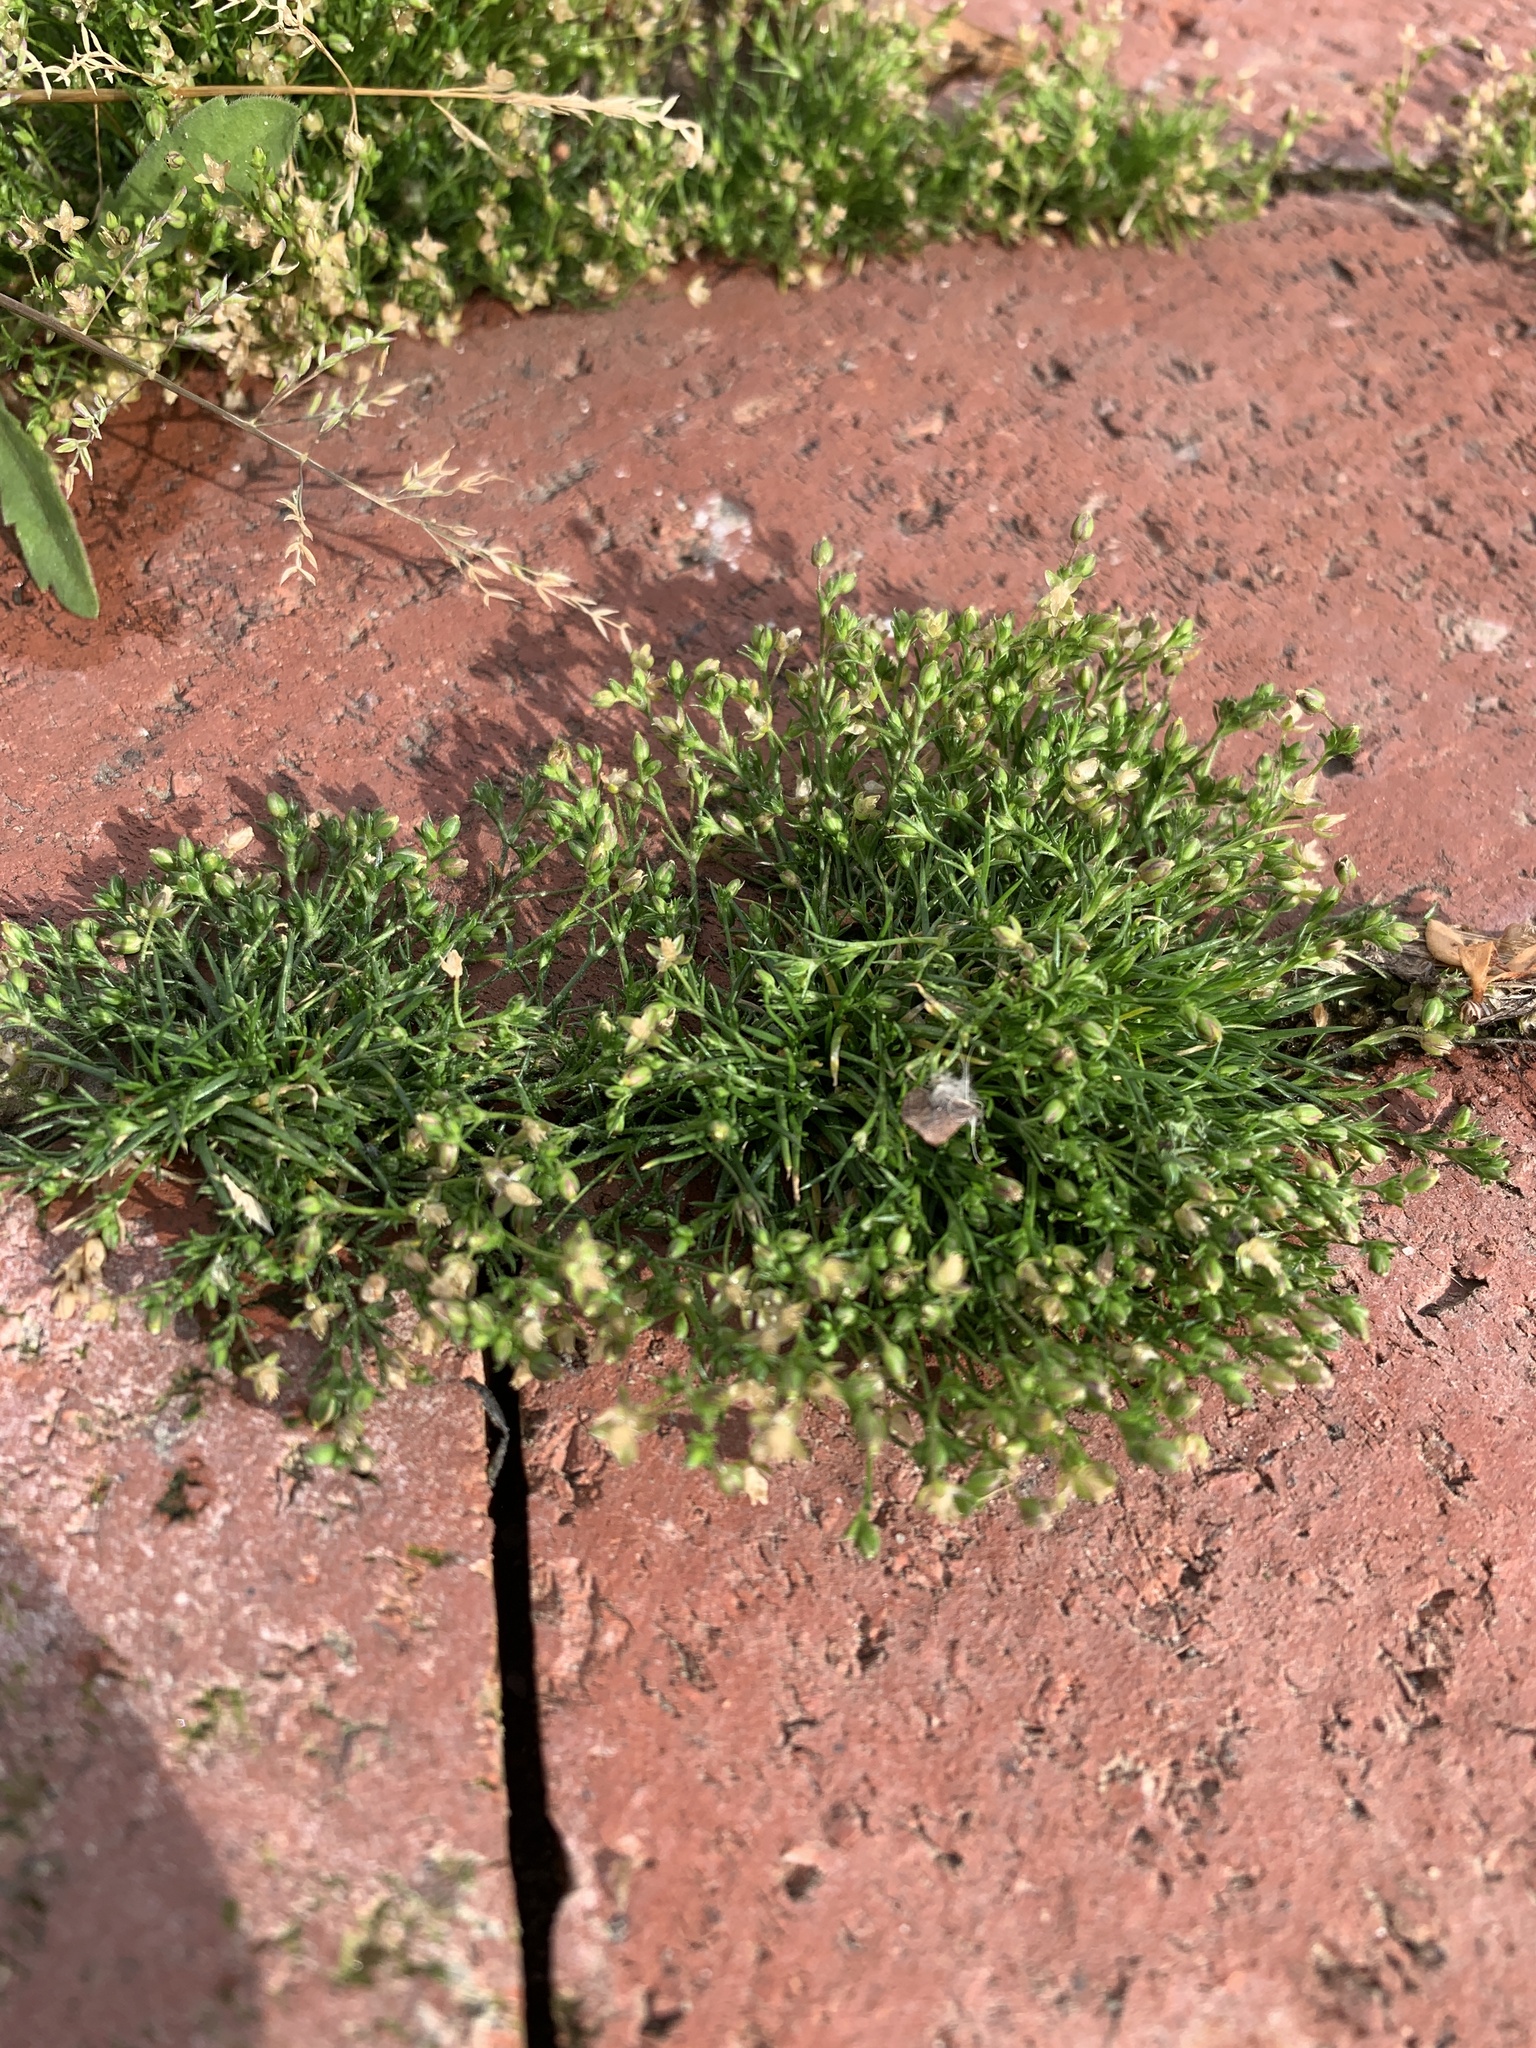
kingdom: Plantae
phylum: Tracheophyta
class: Magnoliopsida
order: Caryophyllales
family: Caryophyllaceae
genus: Sagina
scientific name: Sagina apetala
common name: Annual pearlwort
